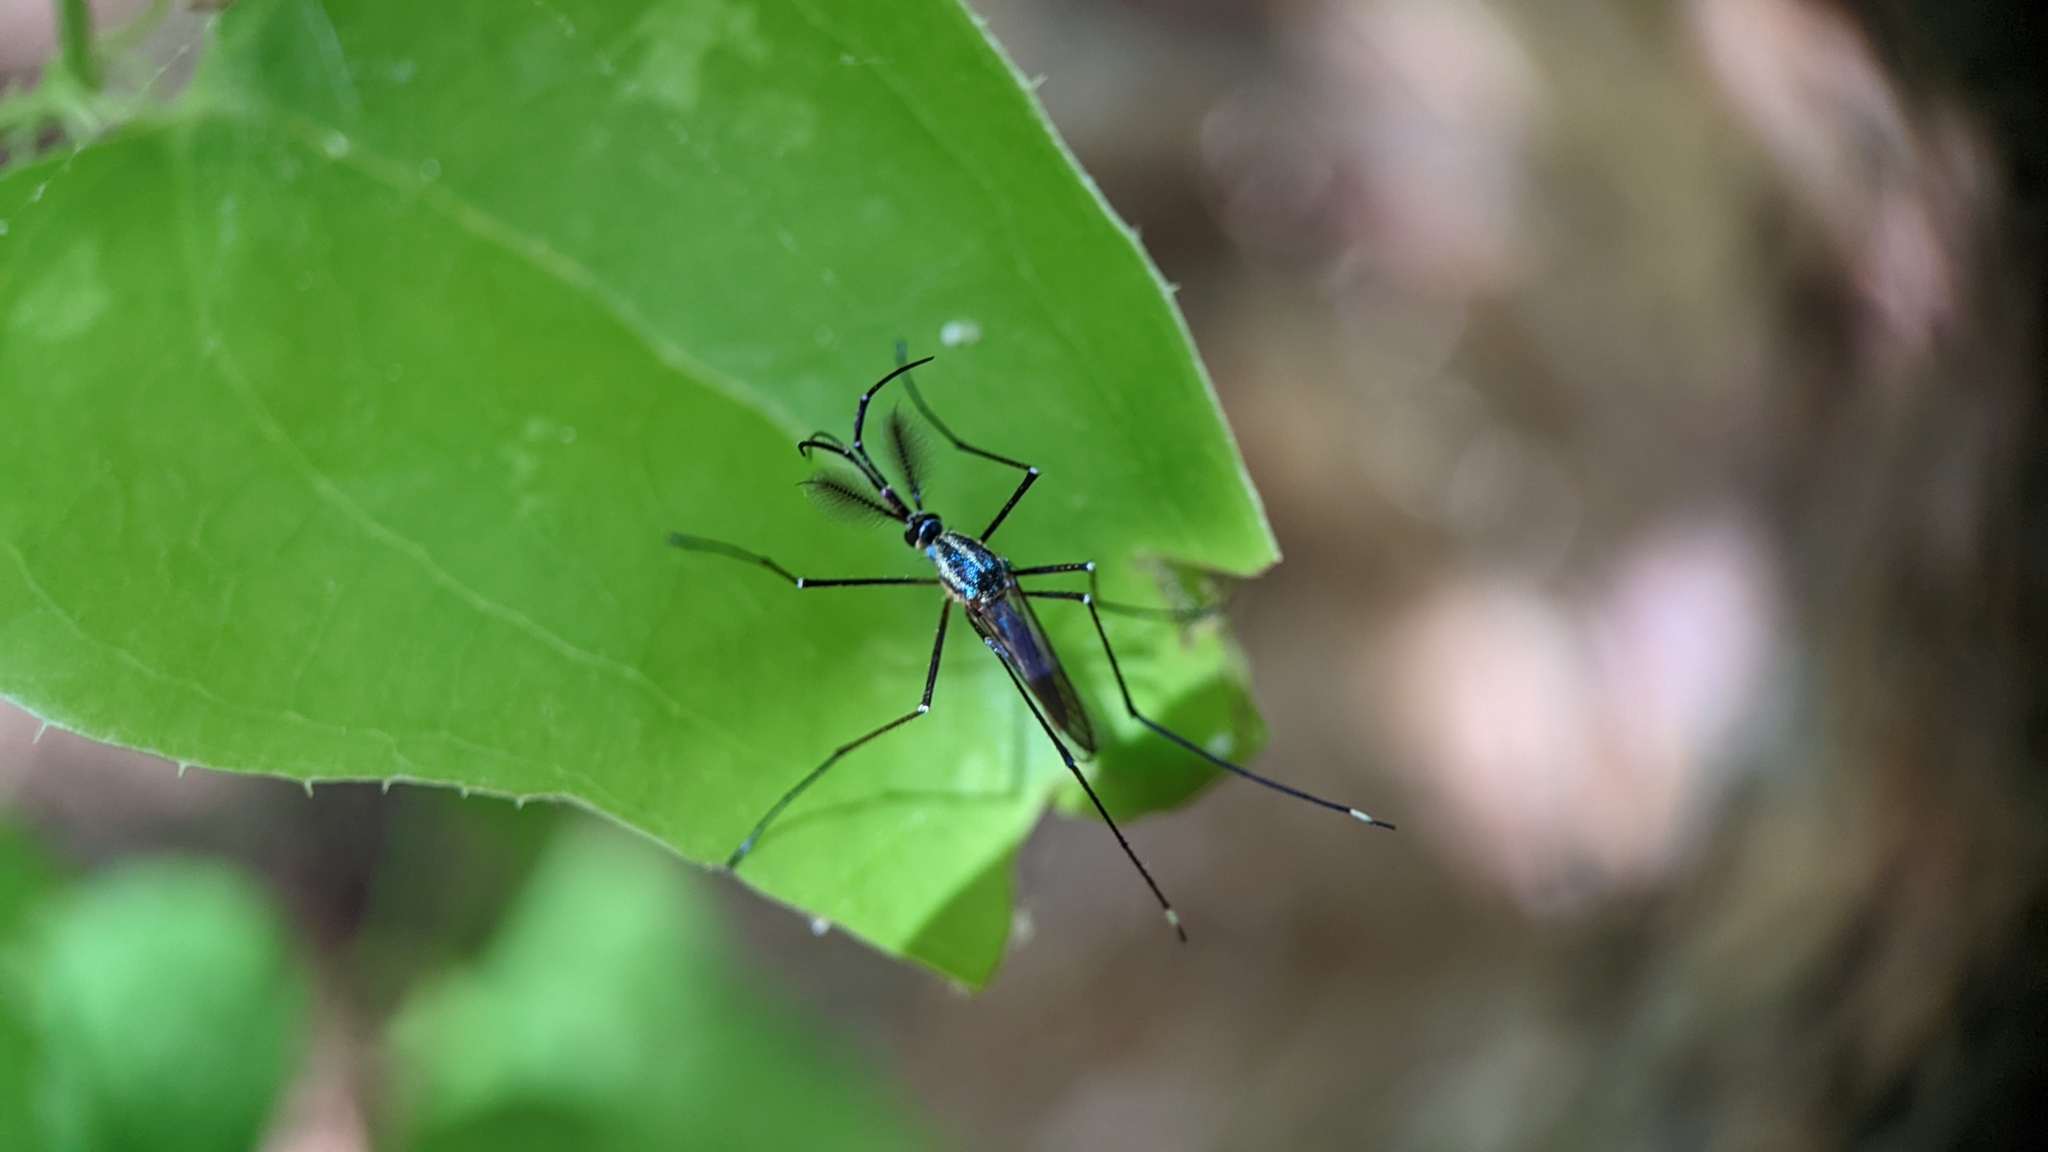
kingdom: Animalia
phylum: Arthropoda
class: Insecta
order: Diptera
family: Culicidae
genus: Toxorhynchites
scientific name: Toxorhynchites rutilus
